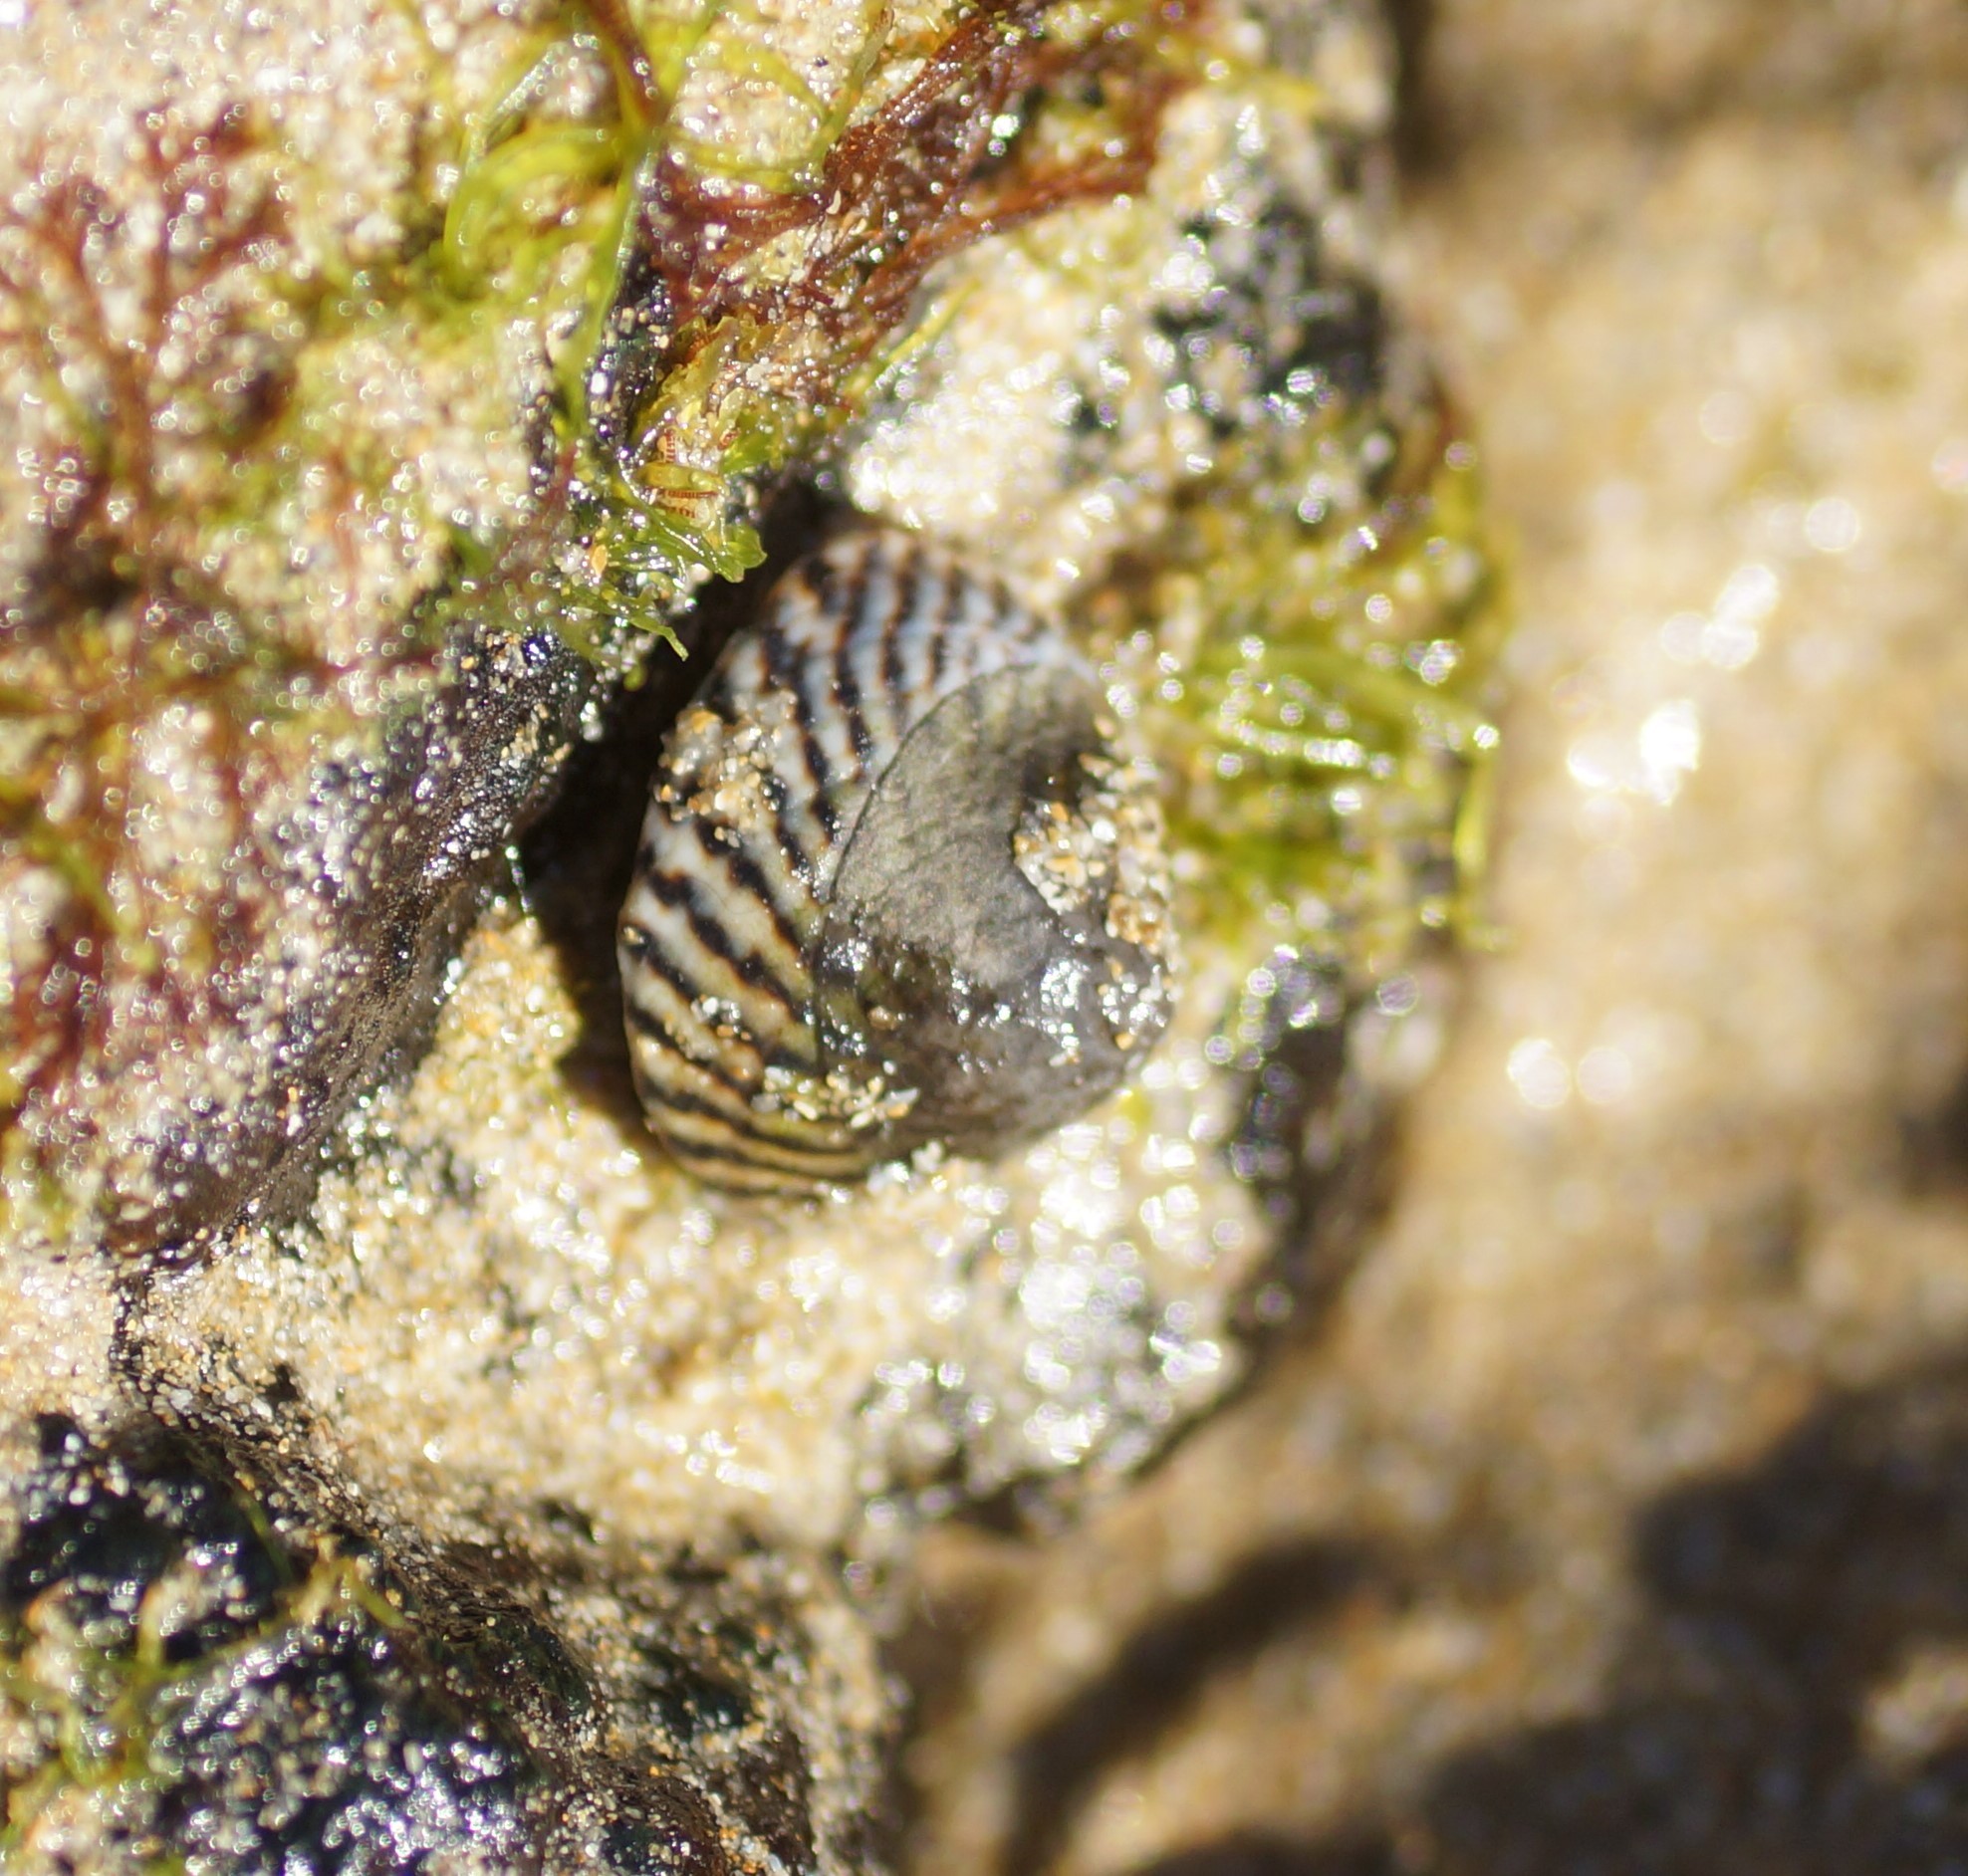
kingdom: Animalia
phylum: Mollusca
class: Gastropoda
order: Littorinimorpha
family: Littorinidae
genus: Bembicium
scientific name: Bembicium nanum
